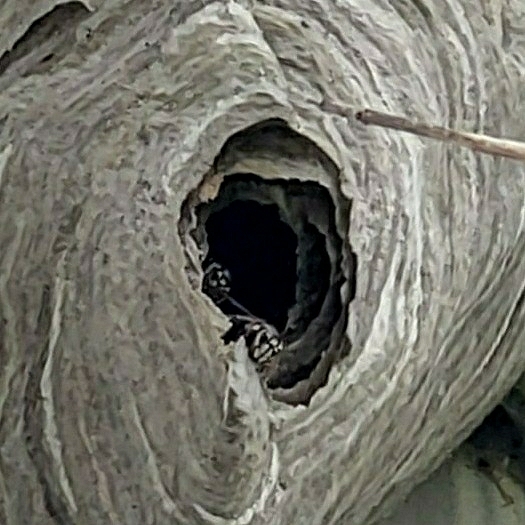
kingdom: Animalia
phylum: Arthropoda
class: Insecta
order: Hymenoptera
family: Vespidae
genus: Dolichovespula
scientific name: Dolichovespula maculata
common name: Bald-faced hornet
